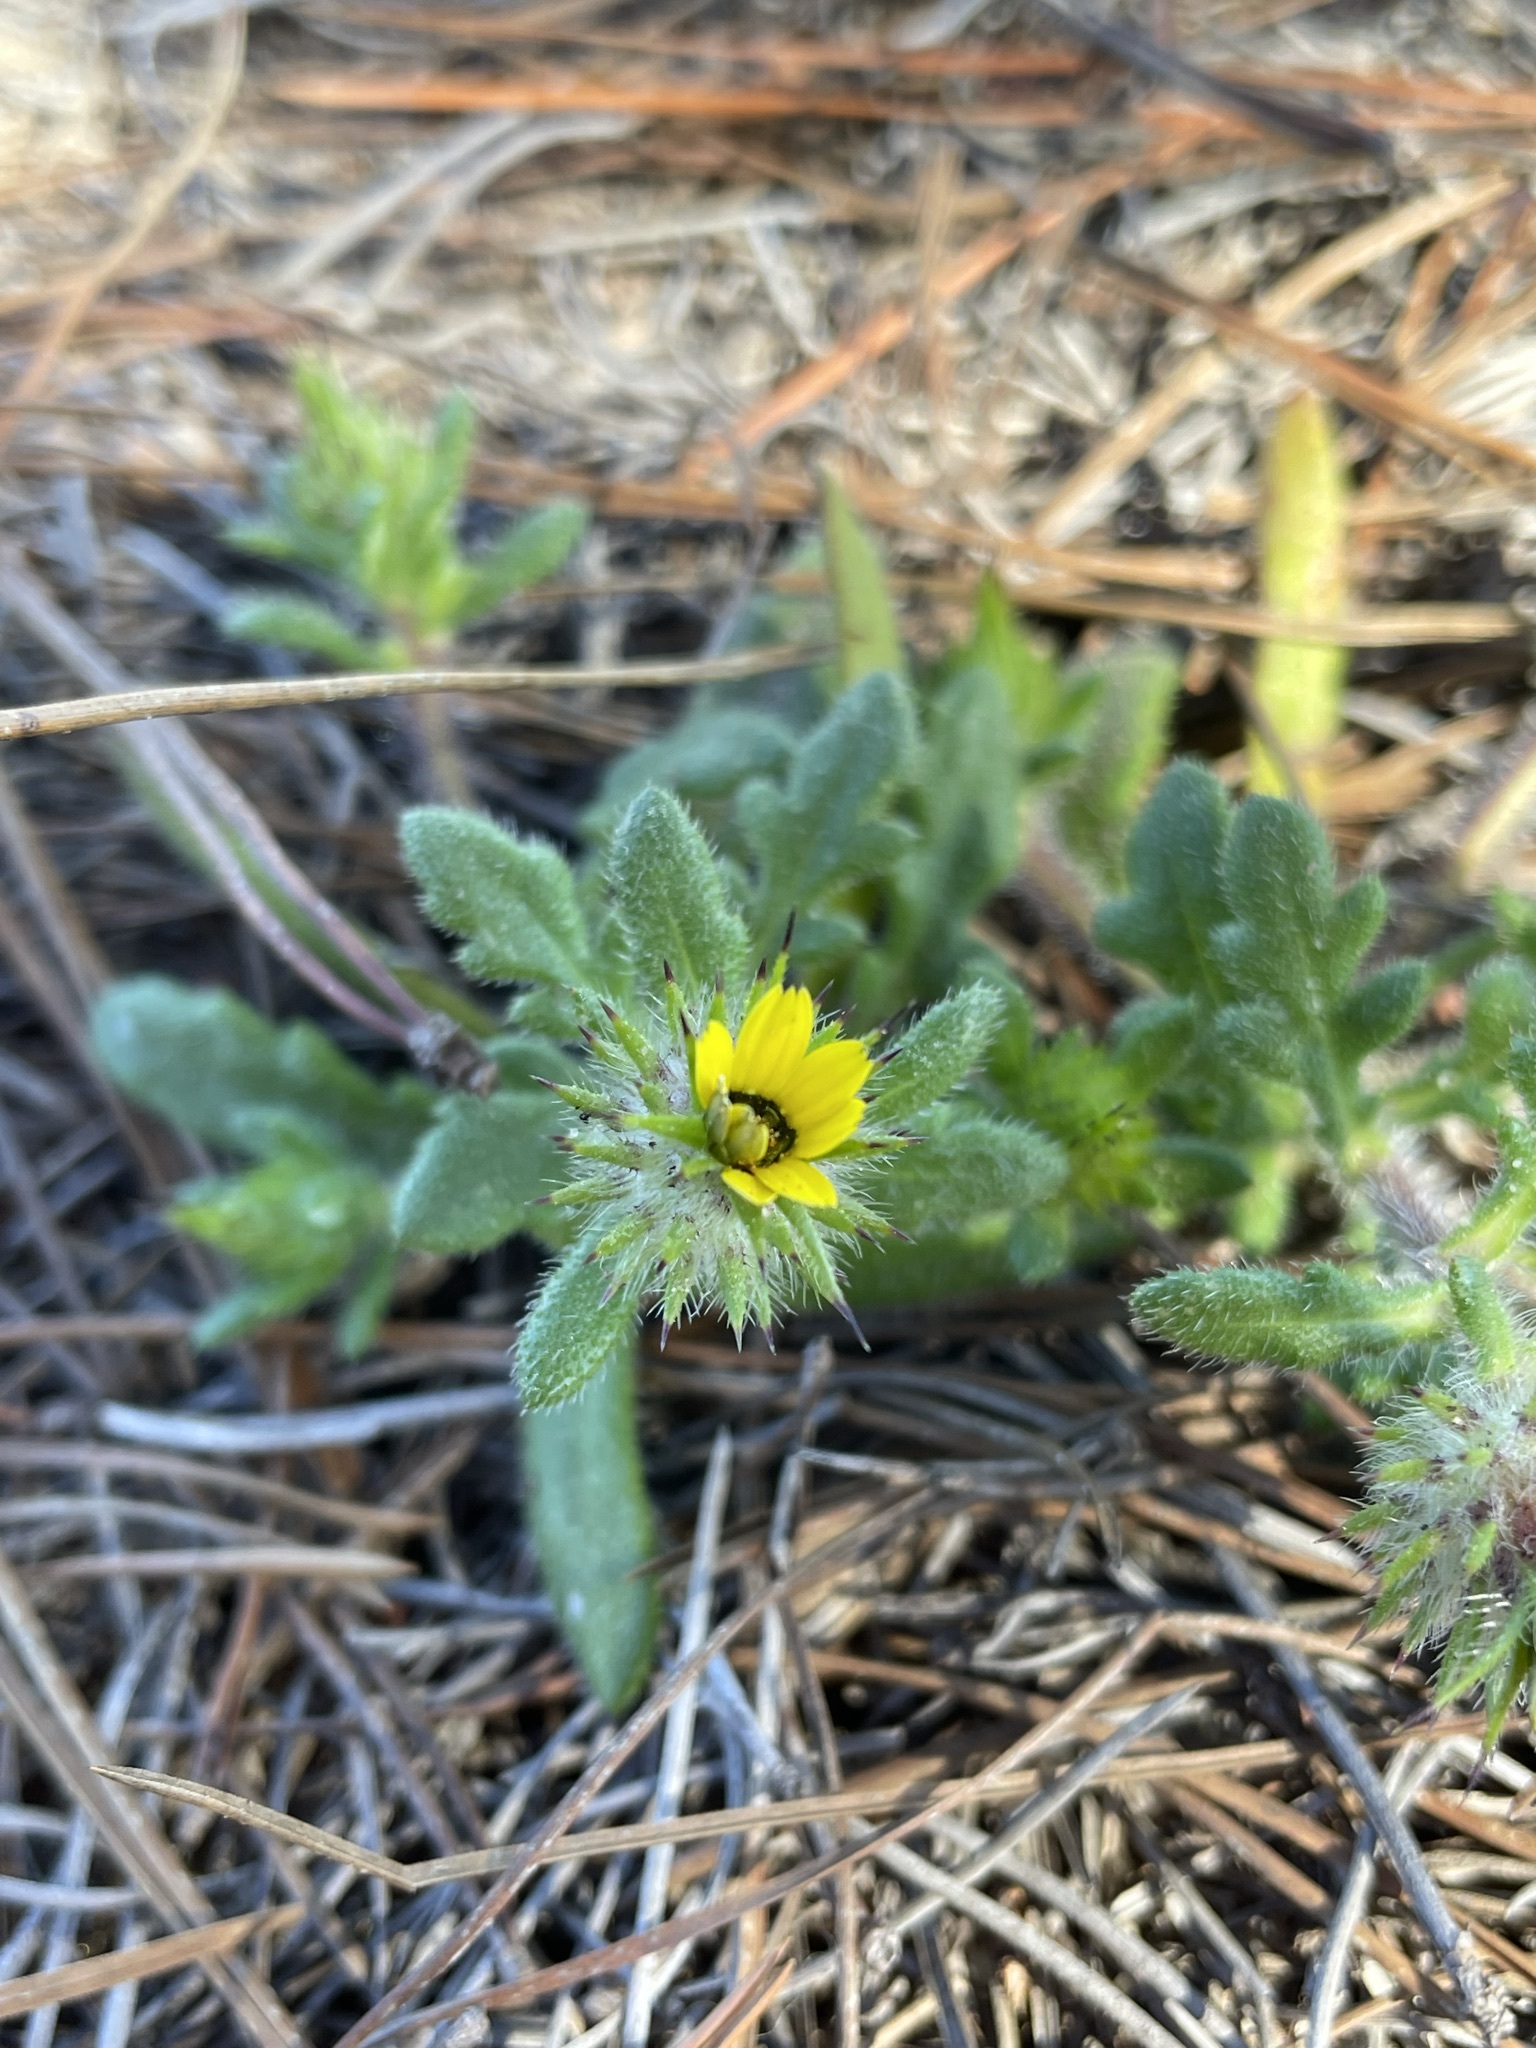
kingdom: Plantae
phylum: Tracheophyta
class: Magnoliopsida
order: Asterales
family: Asteraceae
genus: Gorteria
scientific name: Gorteria personata
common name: Gorteria
